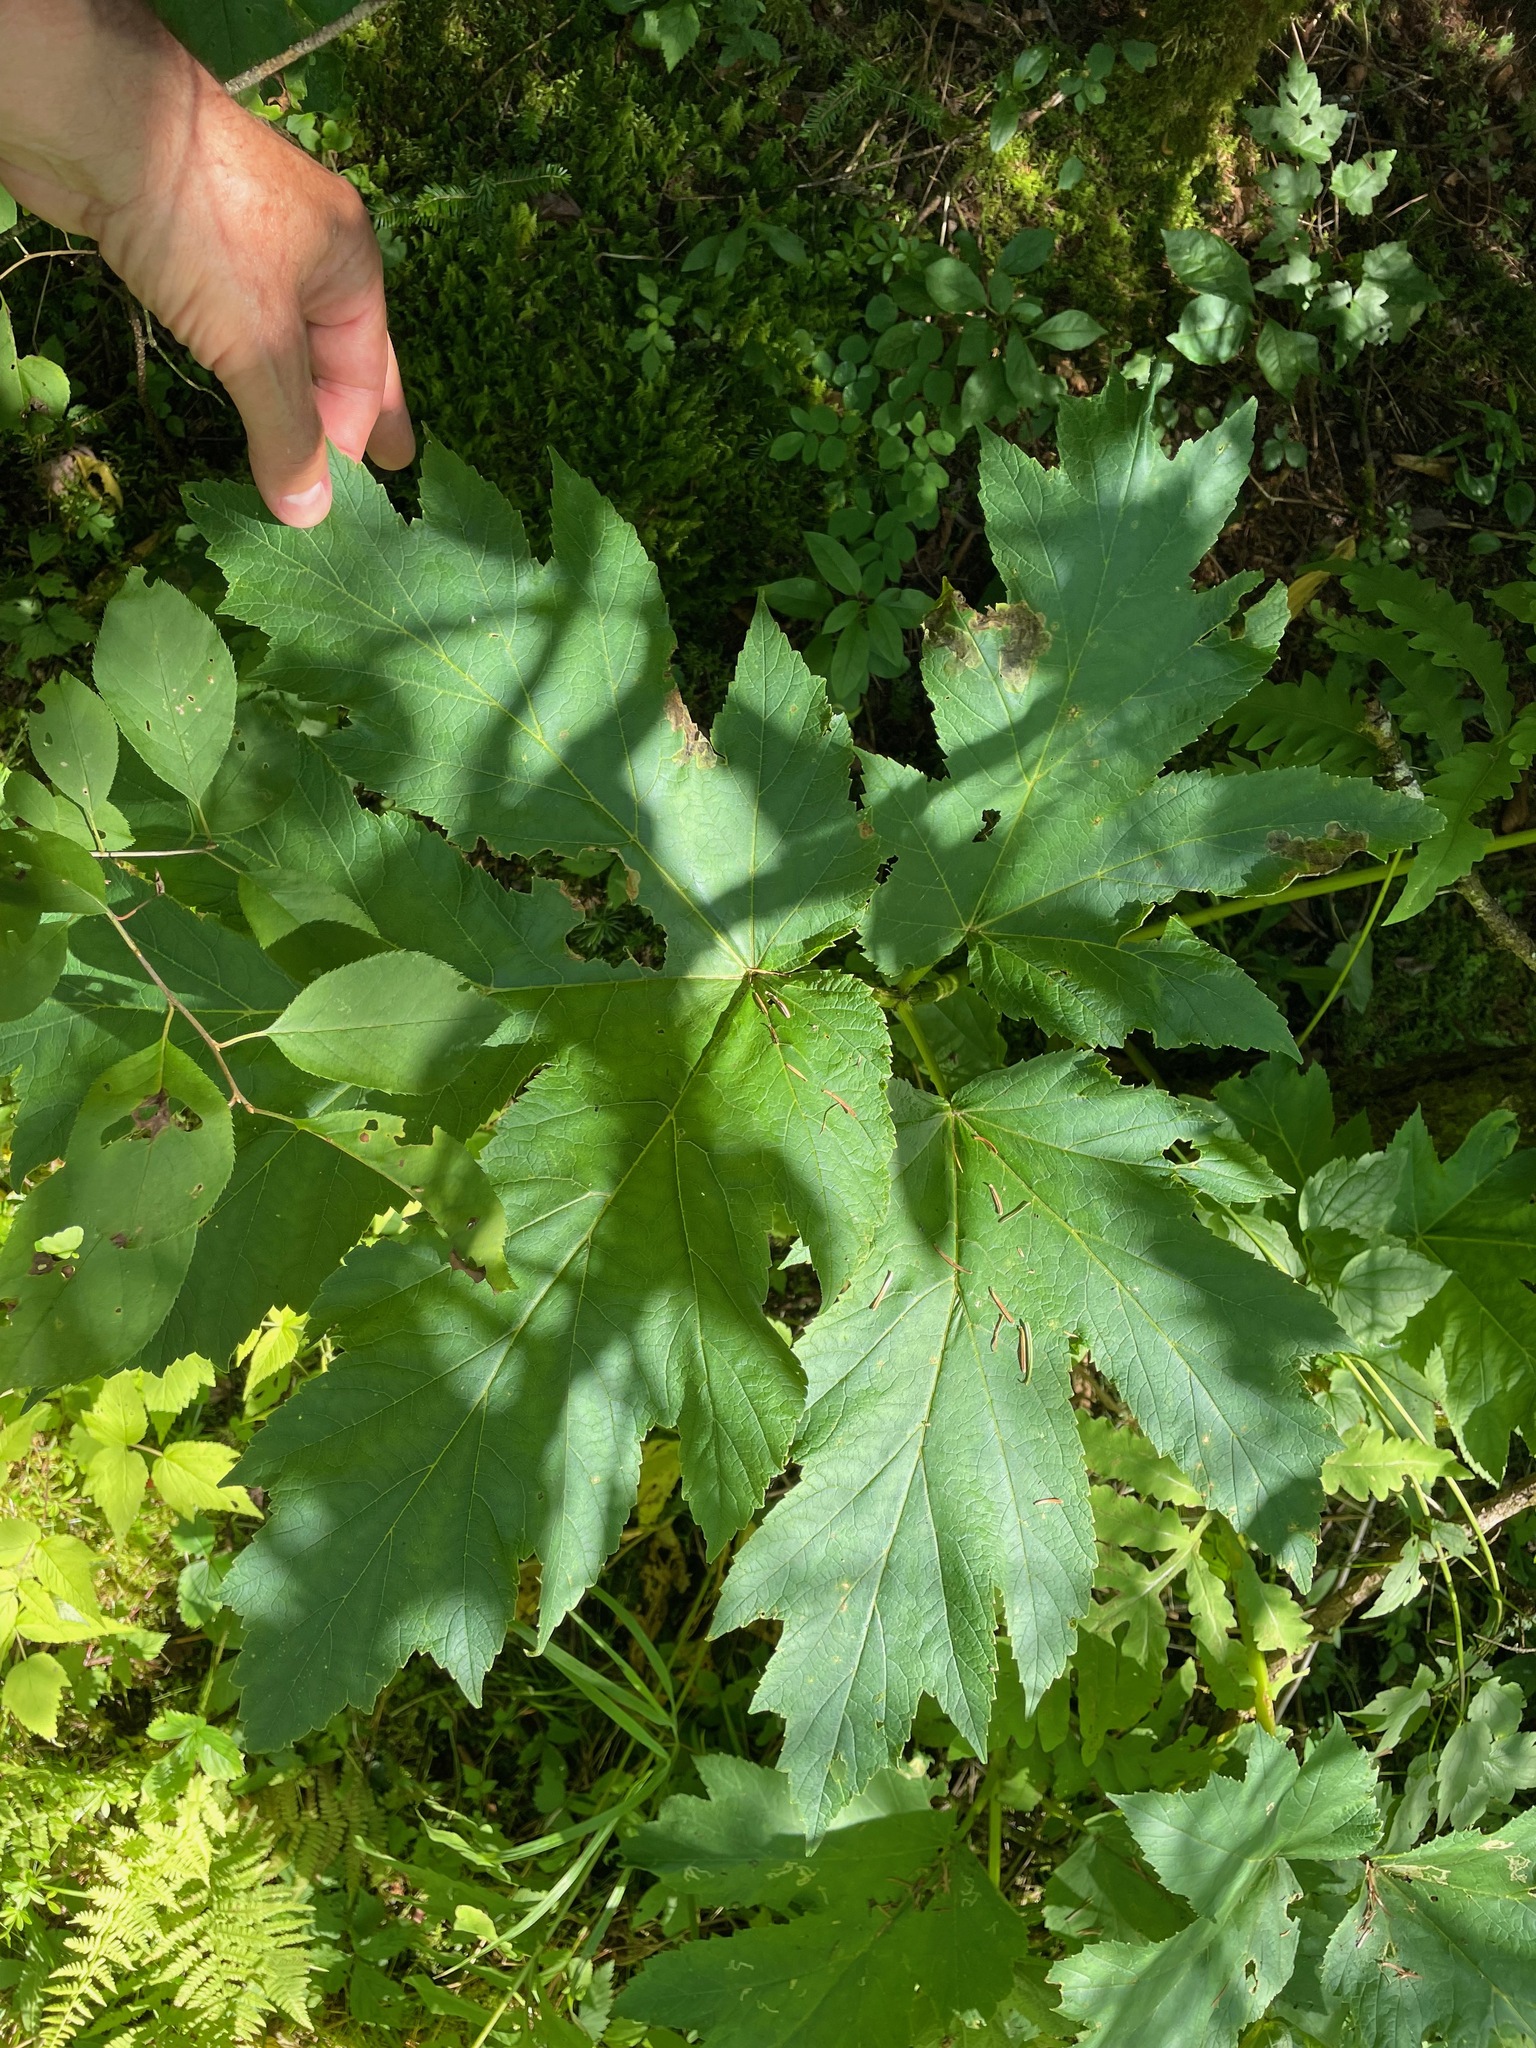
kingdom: Plantae
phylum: Tracheophyta
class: Magnoliopsida
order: Apiales
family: Apiaceae
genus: Heracleum
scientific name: Heracleum maximum
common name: American cow parsnip
